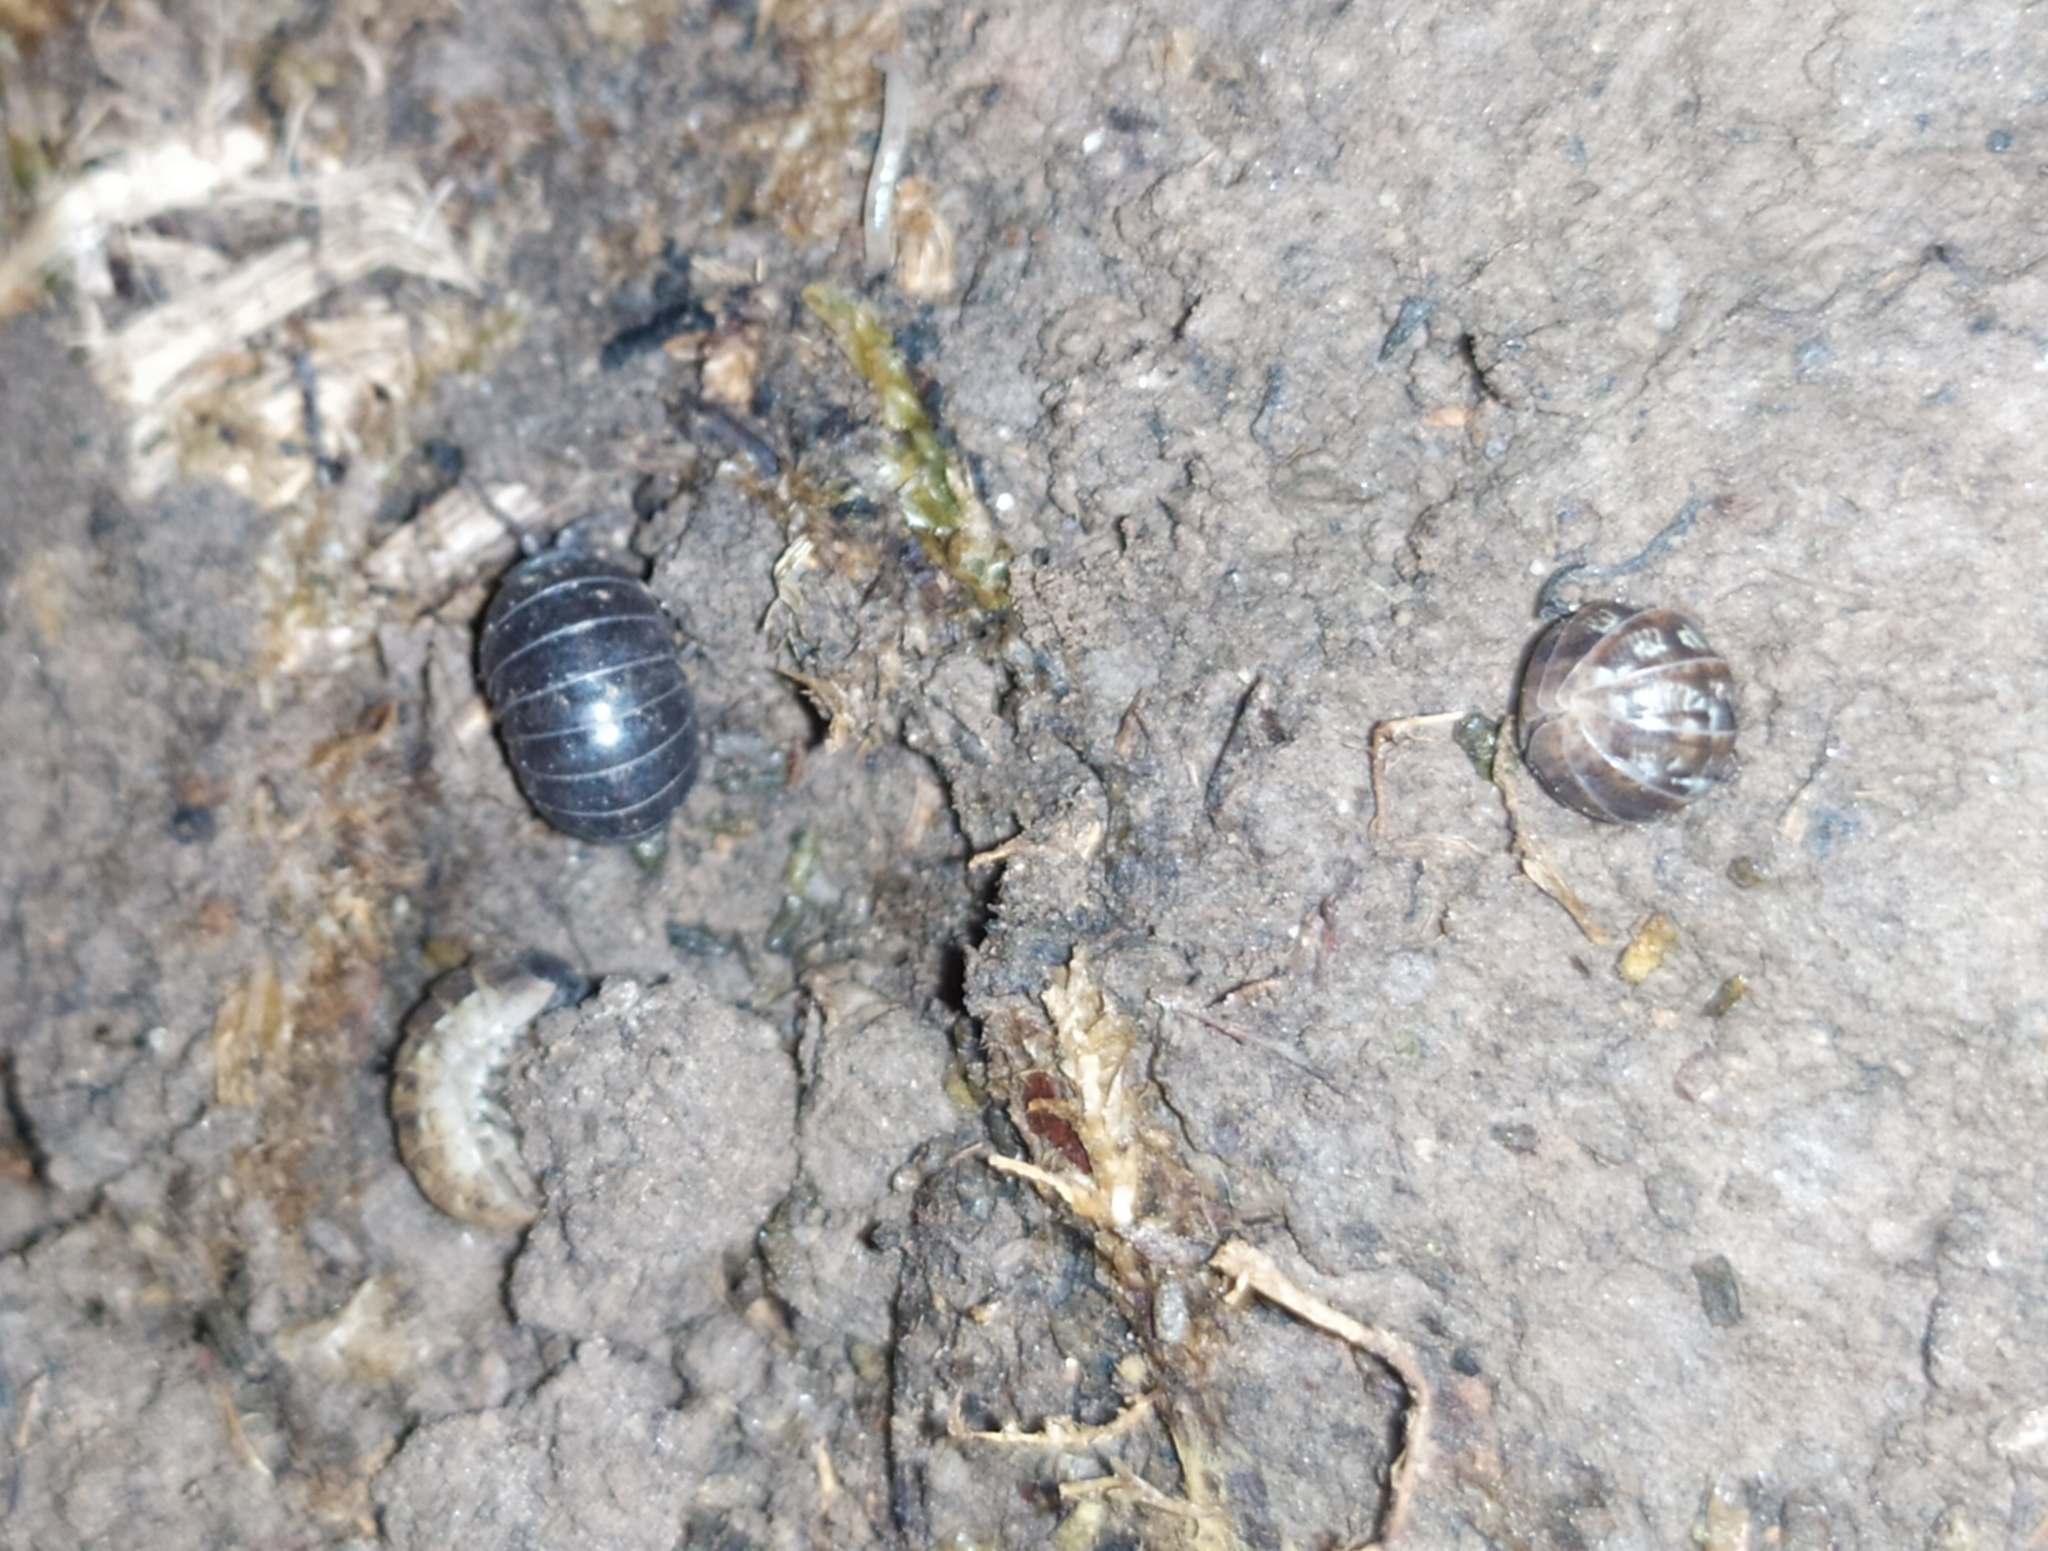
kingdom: Animalia
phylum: Arthropoda
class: Malacostraca
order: Isopoda
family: Armadillidiidae
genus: Armadillidium
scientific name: Armadillidium vulgare
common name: Common pill woodlouse
